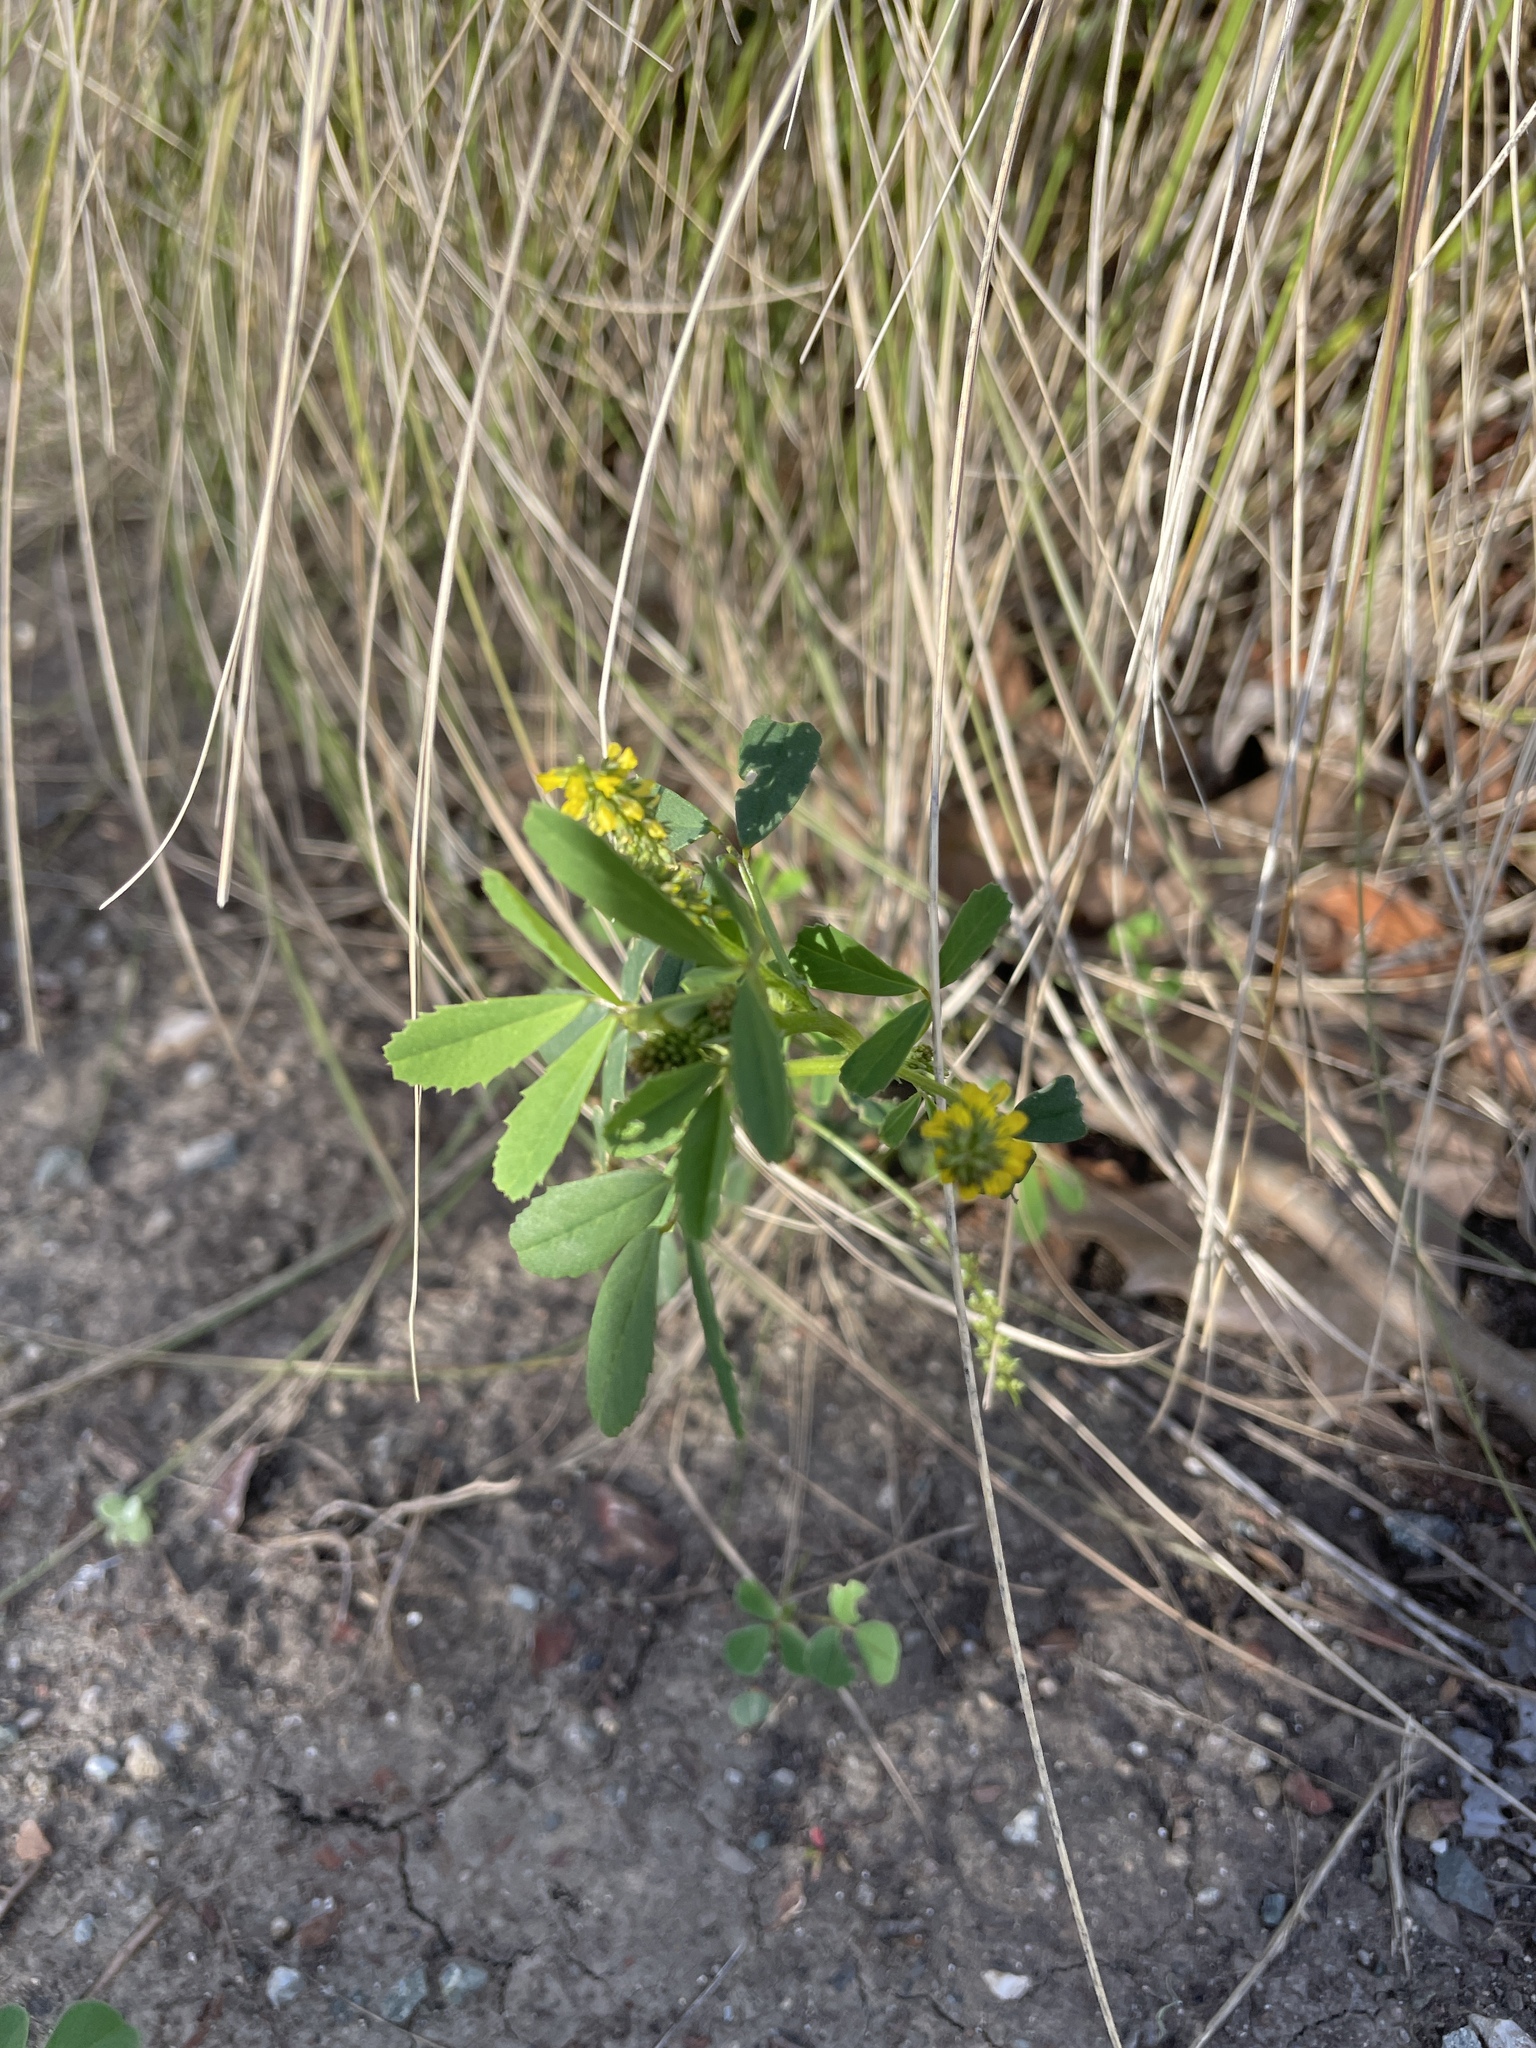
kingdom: Plantae
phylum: Tracheophyta
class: Magnoliopsida
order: Fabales
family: Fabaceae
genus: Melilotus
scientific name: Melilotus indicus
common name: Small melilot
